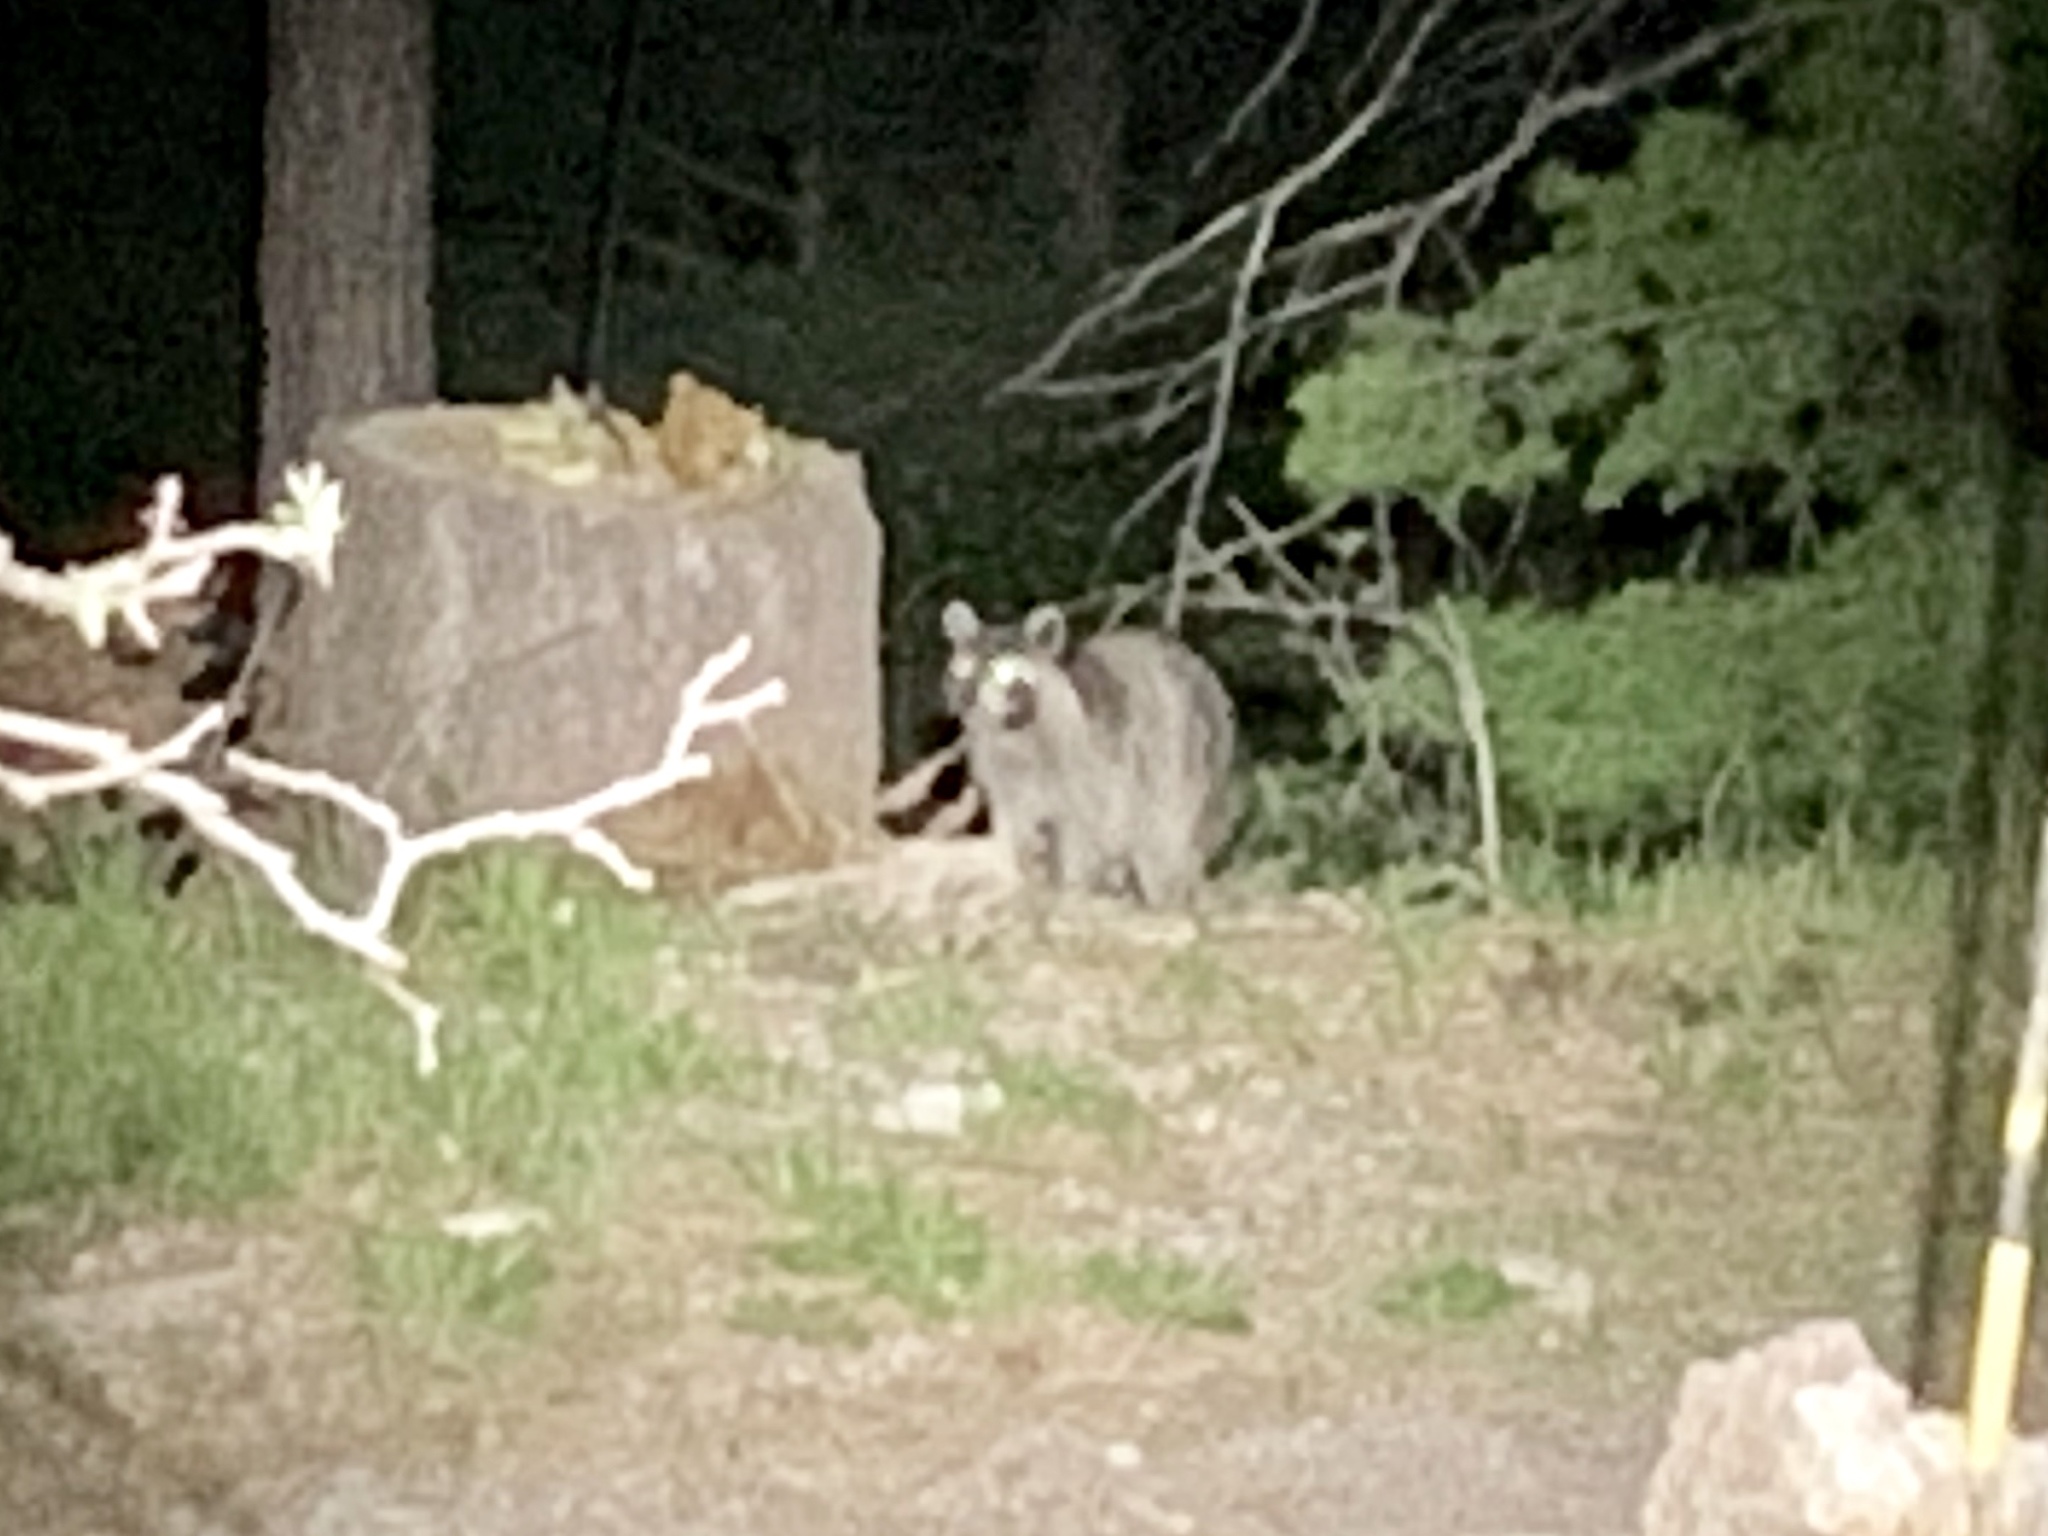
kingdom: Animalia
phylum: Chordata
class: Mammalia
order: Carnivora
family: Procyonidae
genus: Procyon
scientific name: Procyon lotor
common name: Raccoon
